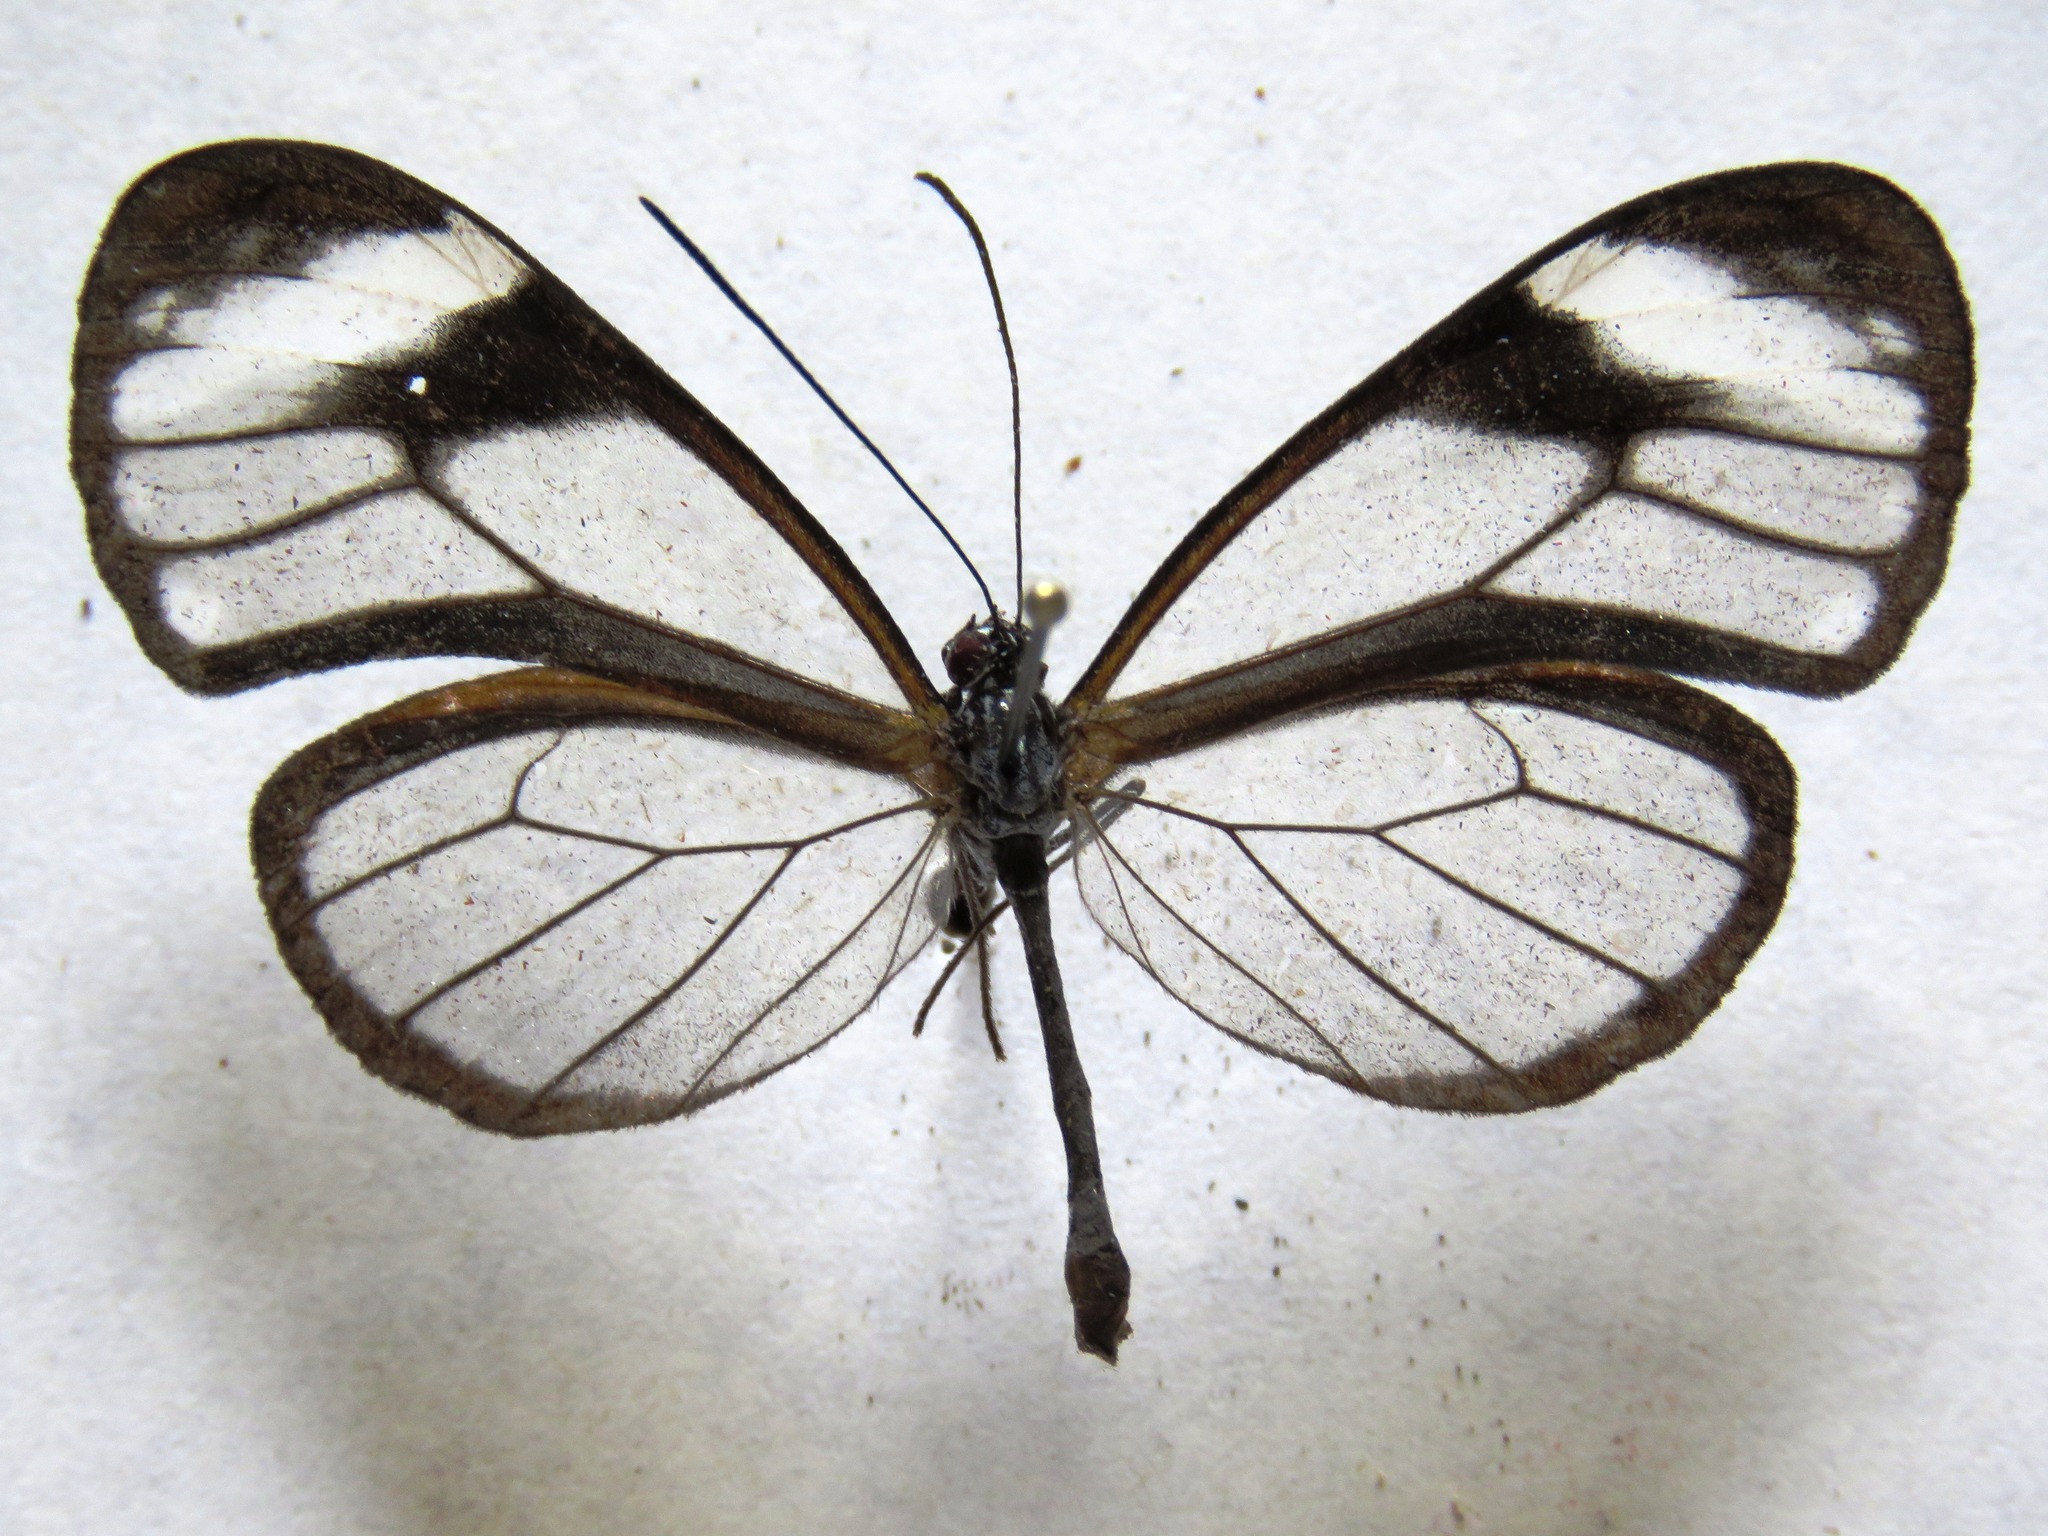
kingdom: Animalia
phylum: Arthropoda
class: Insecta
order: Lepidoptera
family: Nymphalidae
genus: Hypoleria
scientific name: Hypoleria lavinia
